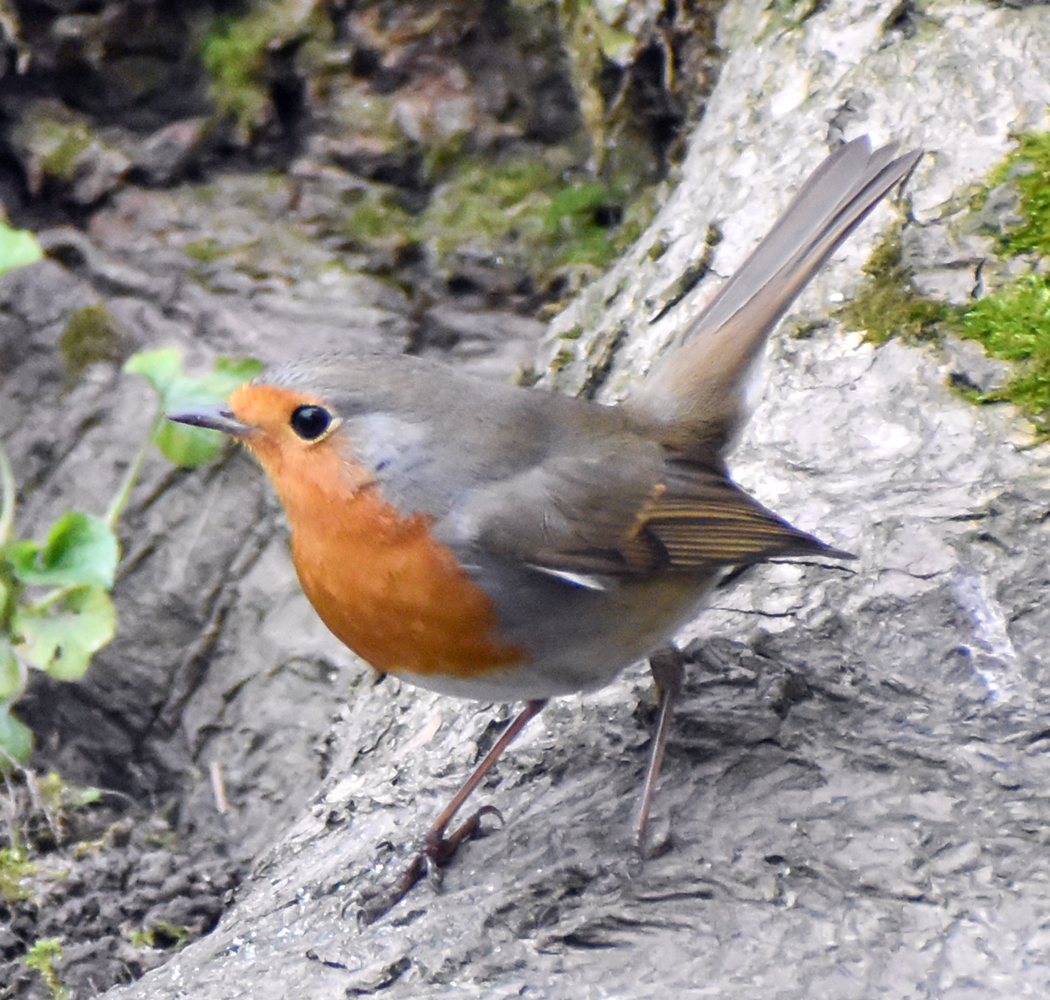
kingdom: Animalia
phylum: Chordata
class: Aves
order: Passeriformes
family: Muscicapidae
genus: Erithacus
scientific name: Erithacus rubecula
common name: European robin
